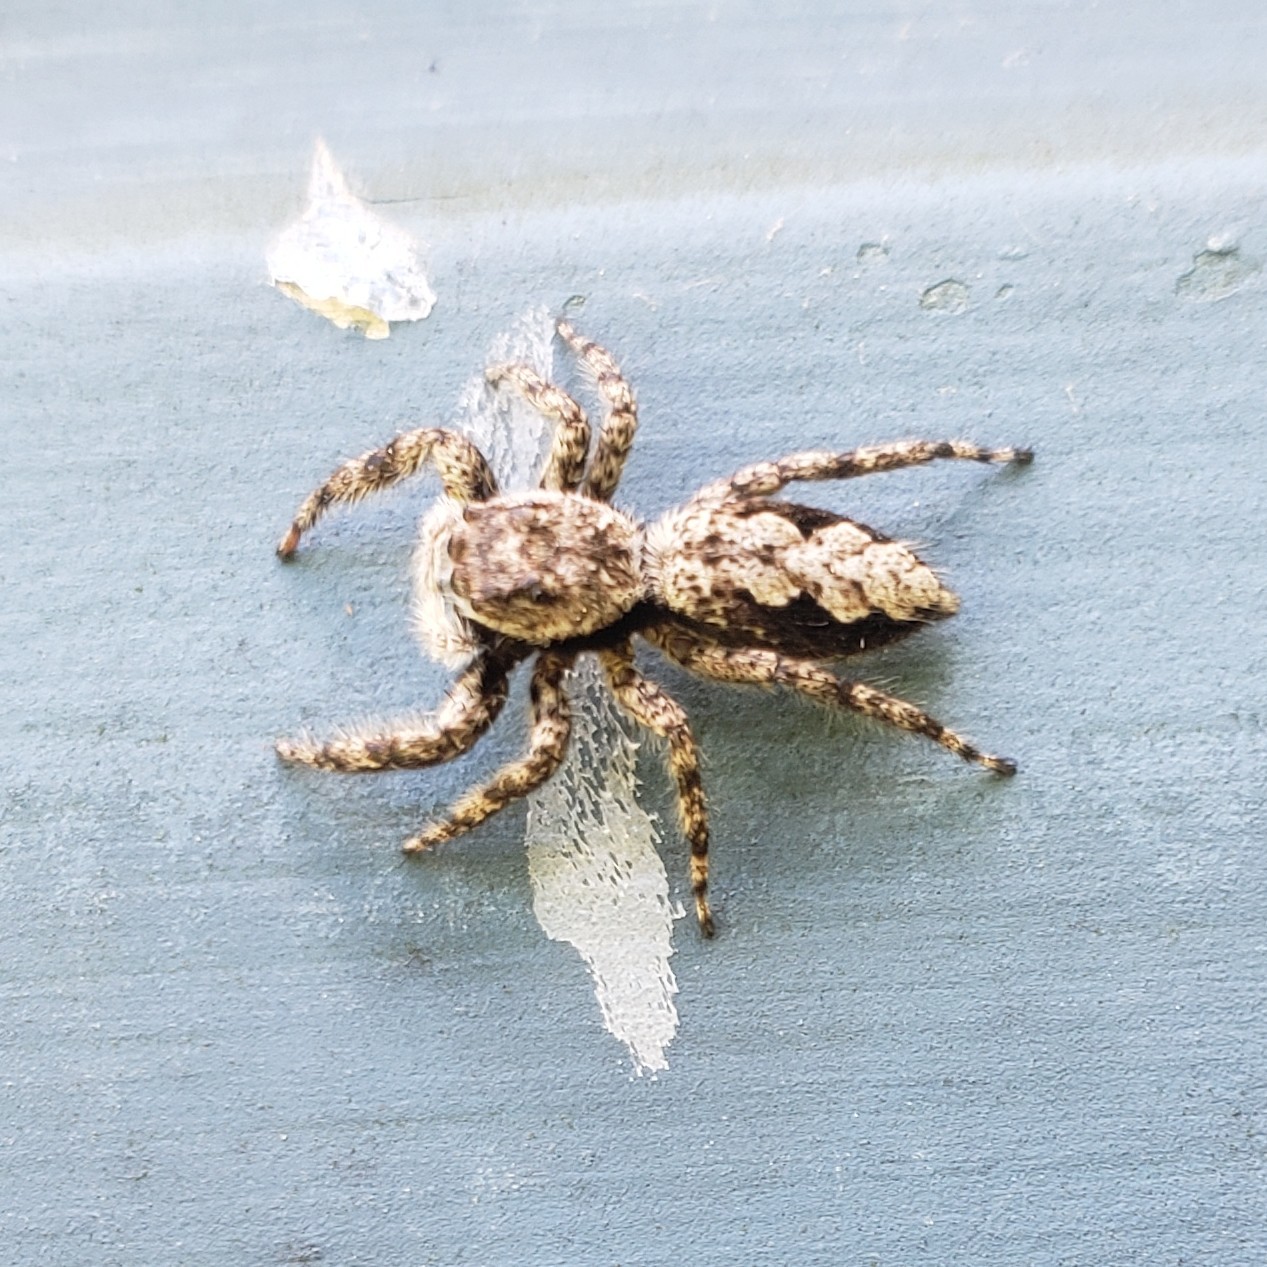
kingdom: Animalia
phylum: Arthropoda
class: Arachnida
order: Araneae
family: Salticidae
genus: Platycryptus
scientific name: Platycryptus undatus
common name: Tan jumping spider
